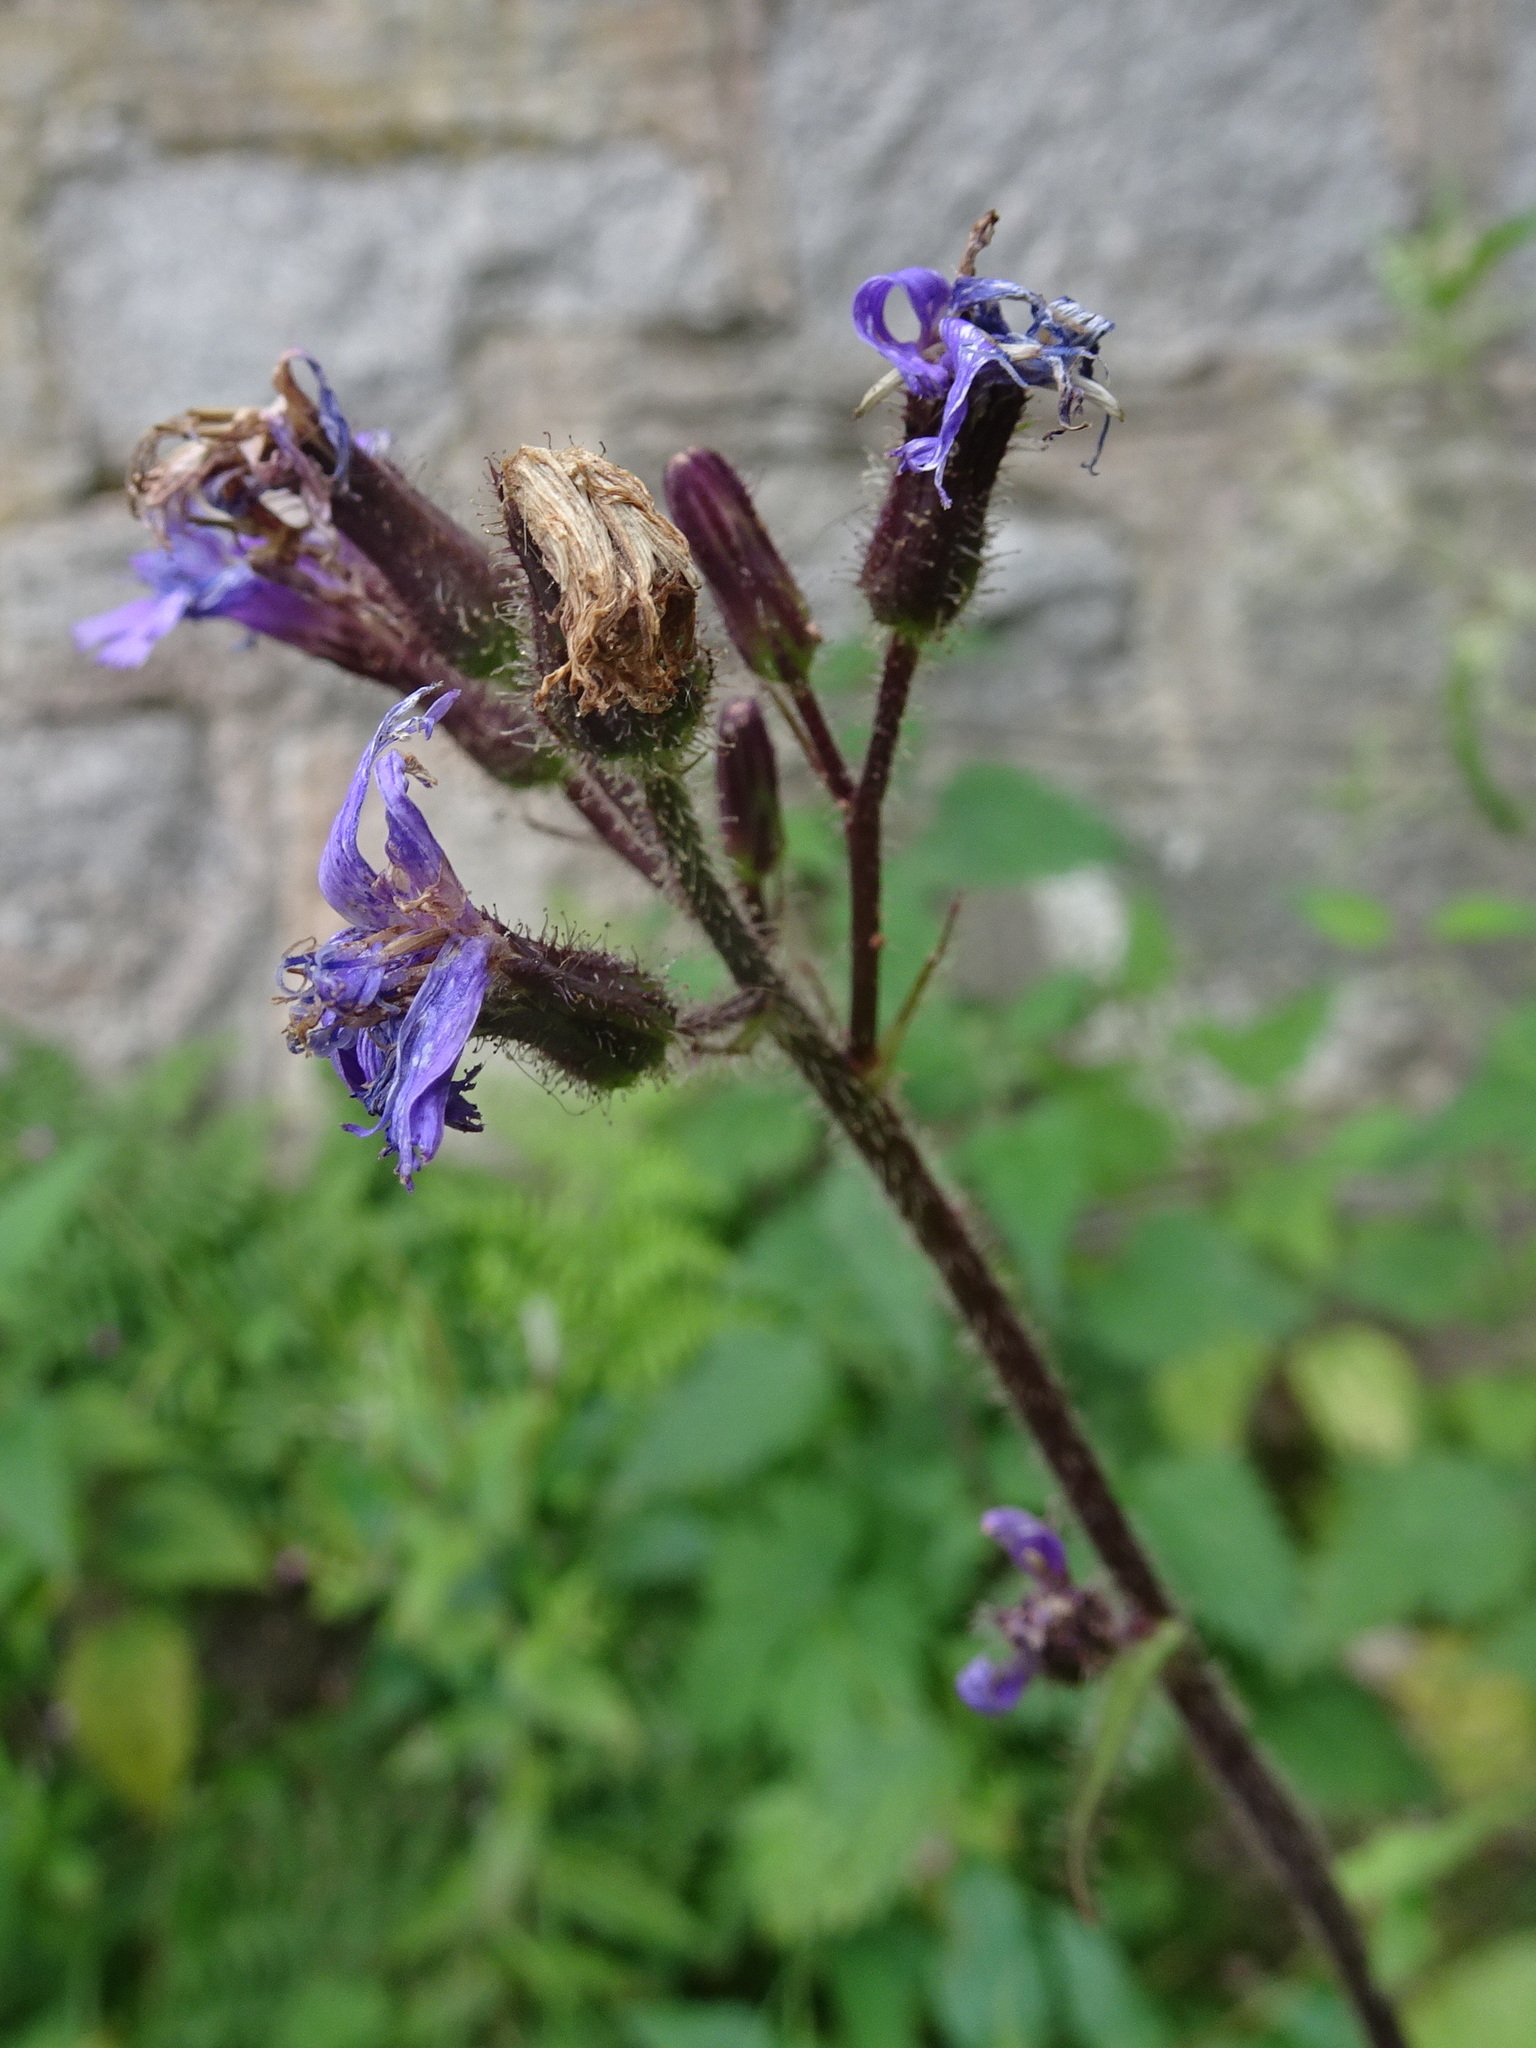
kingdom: Plantae
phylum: Tracheophyta
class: Magnoliopsida
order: Asterales
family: Asteraceae
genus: Cicerbita
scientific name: Cicerbita alpina
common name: Alpine blue-sow-thistle
